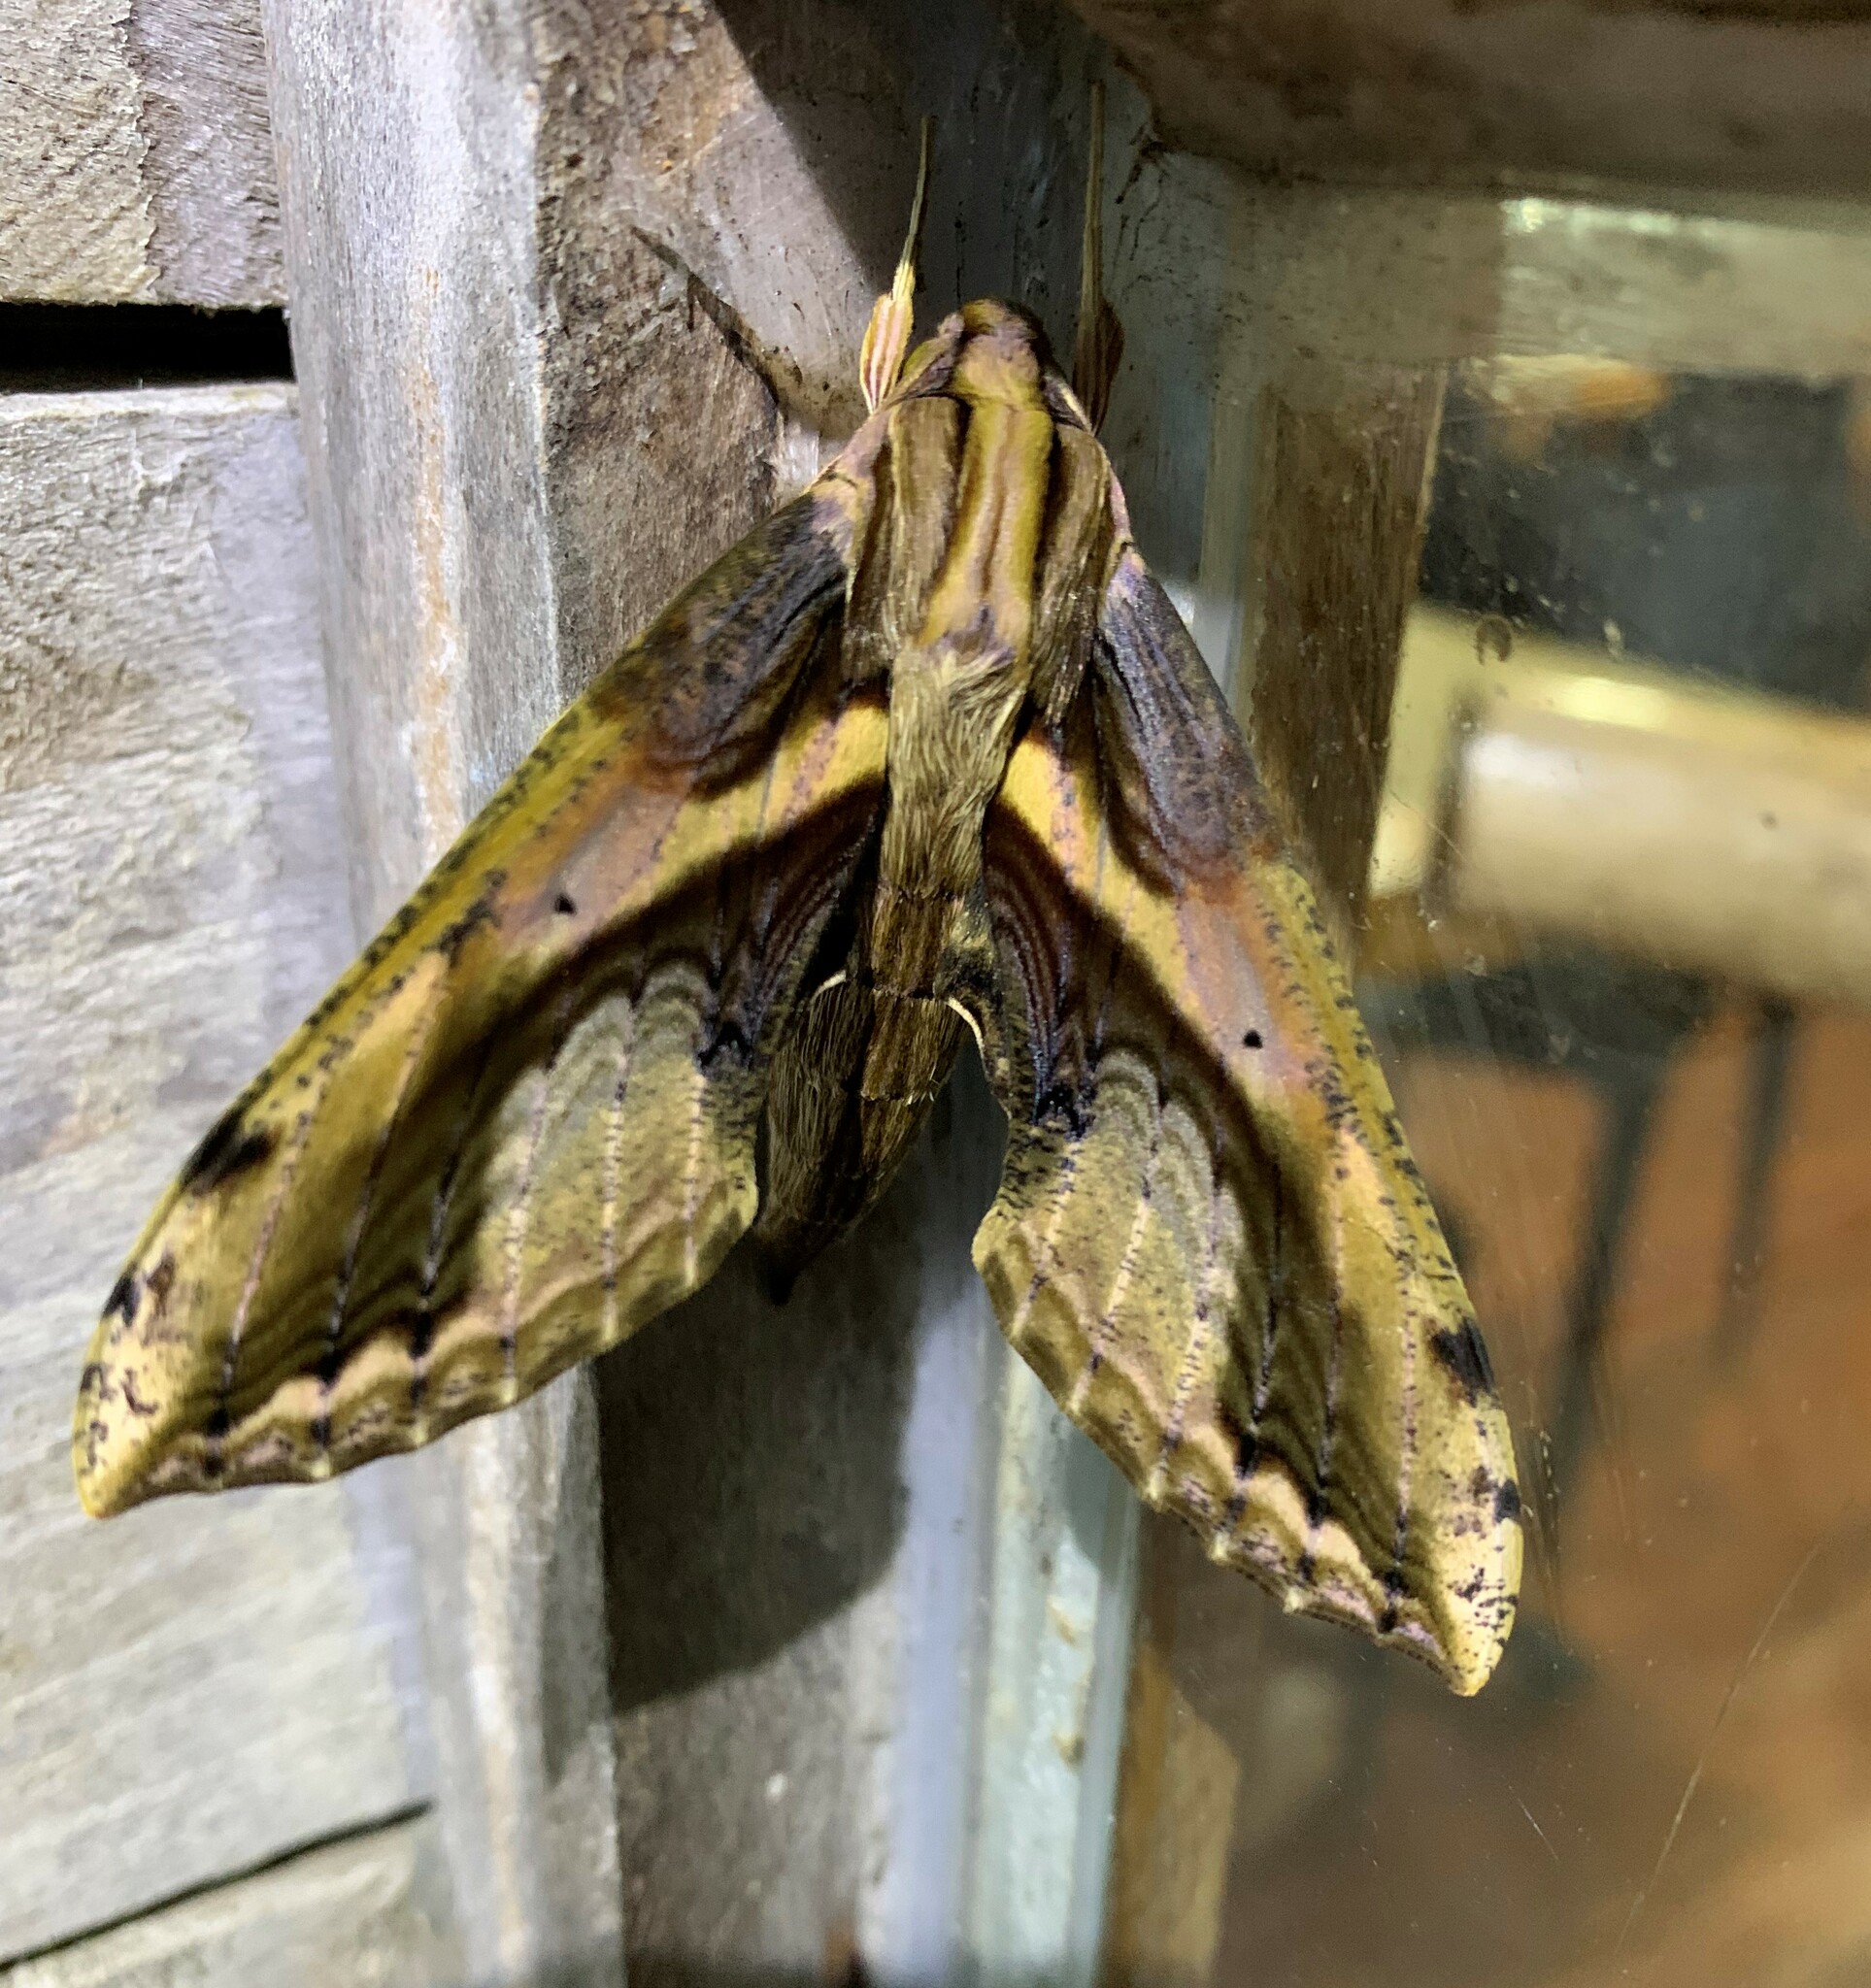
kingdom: Animalia
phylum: Arthropoda
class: Insecta
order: Lepidoptera
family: Sphingidae
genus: Xylophanes
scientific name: Xylophanes ceratomioides
